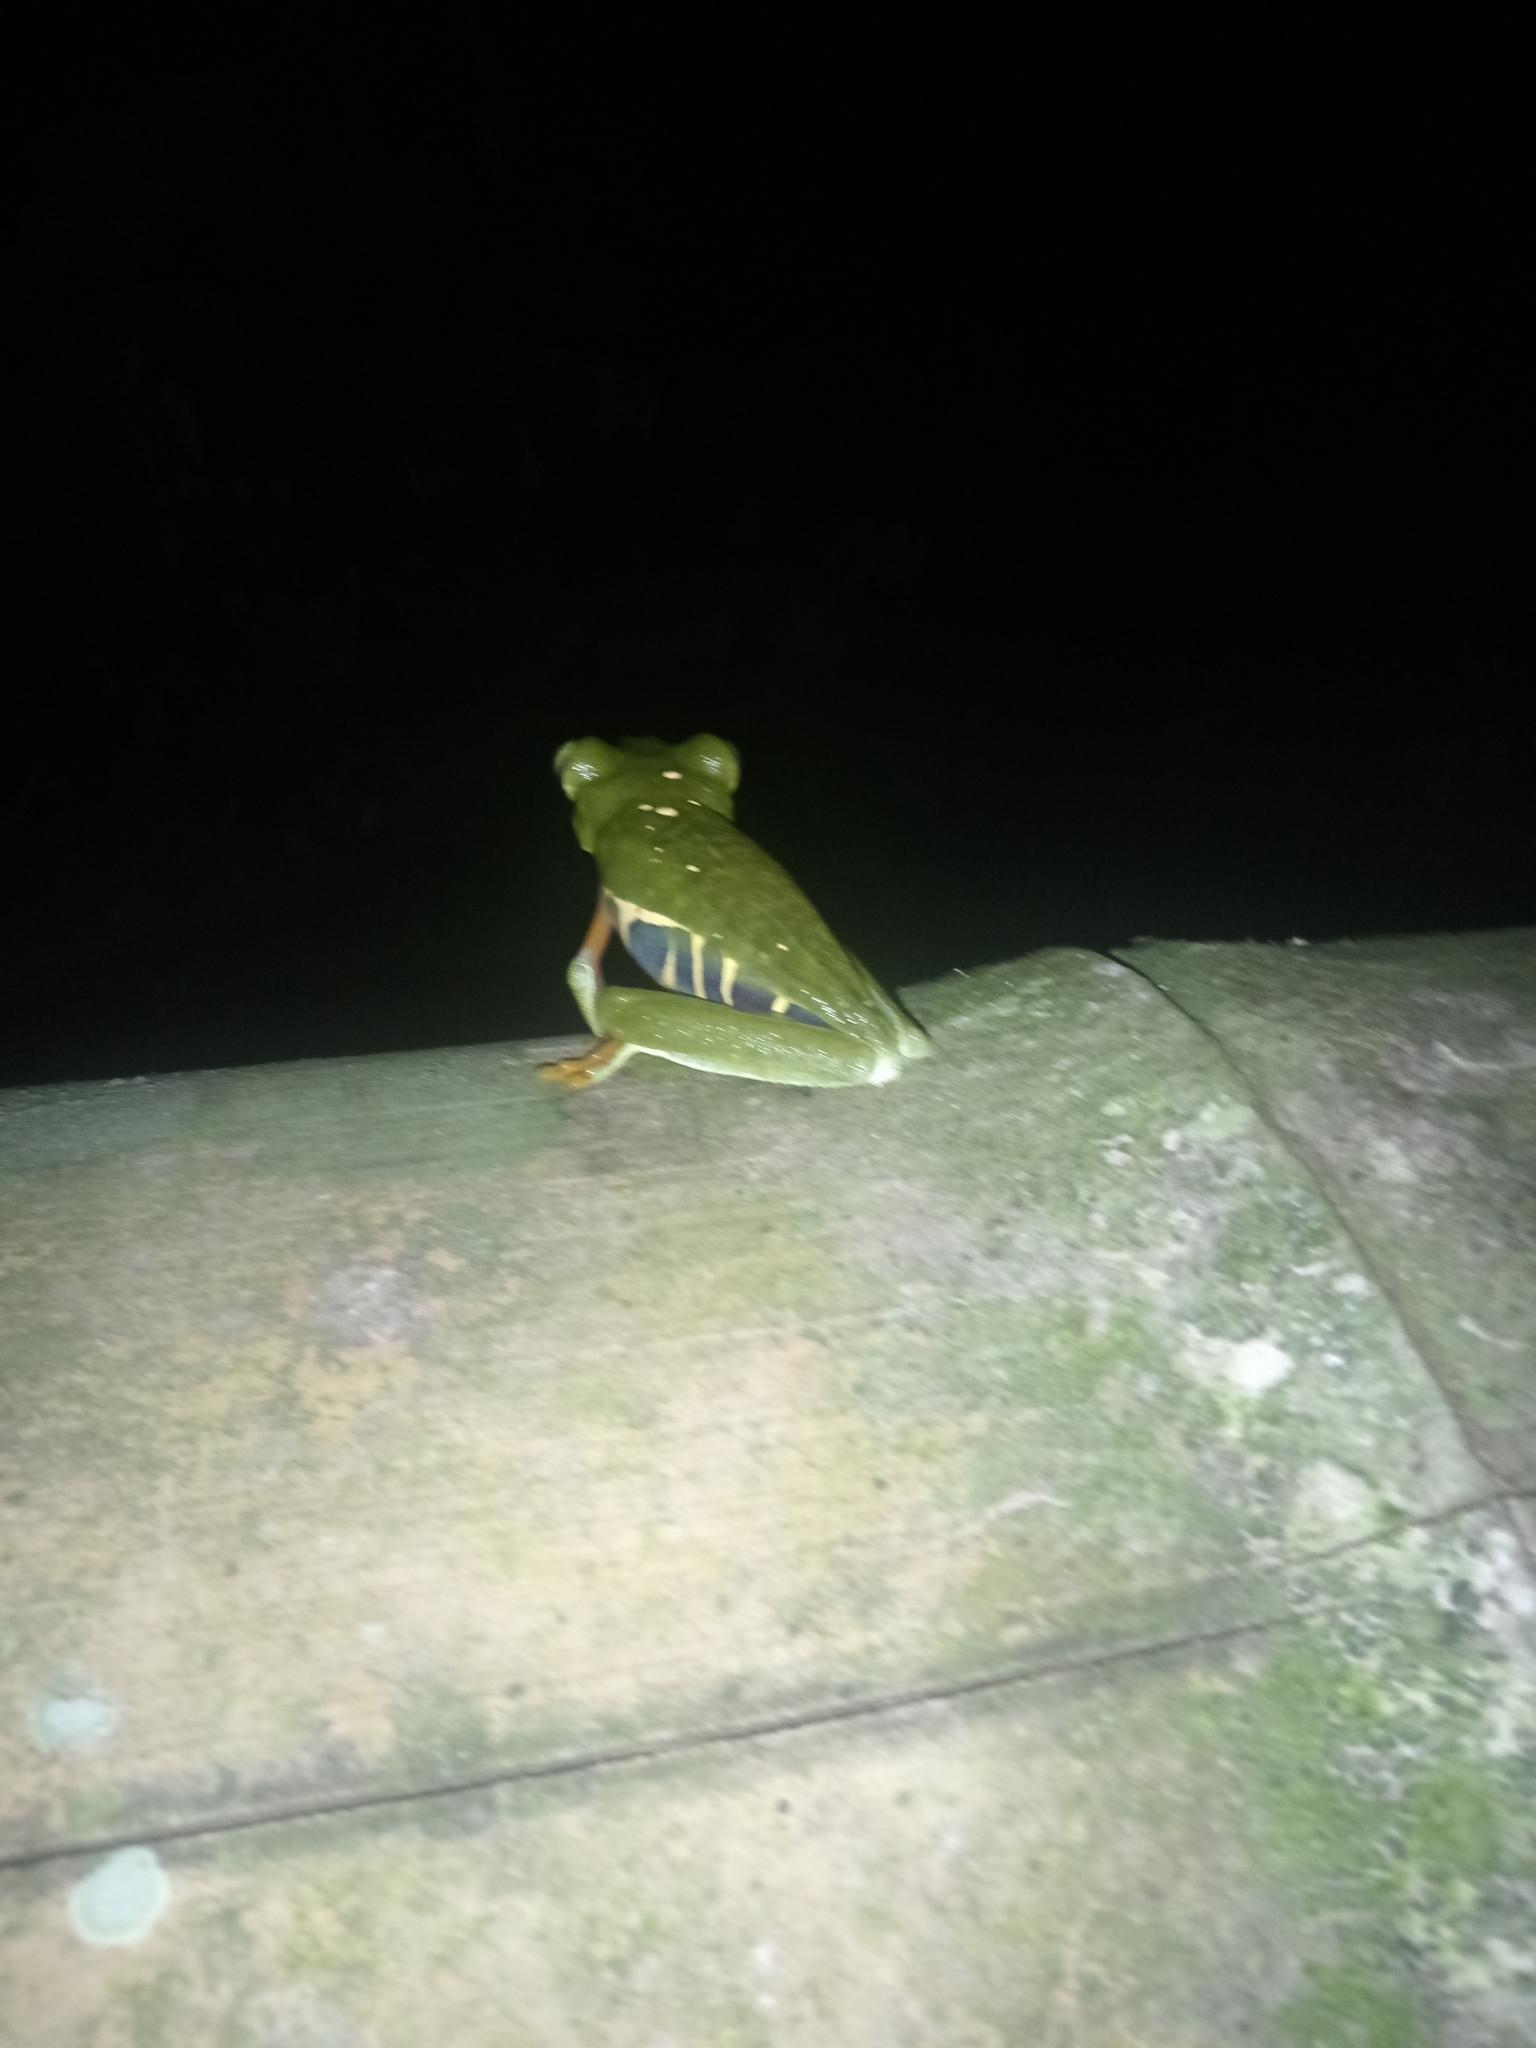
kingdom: Animalia
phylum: Chordata
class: Amphibia
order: Anura
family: Phyllomedusidae
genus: Agalychnis
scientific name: Agalychnis callidryas
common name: Red-eyed treefrog
